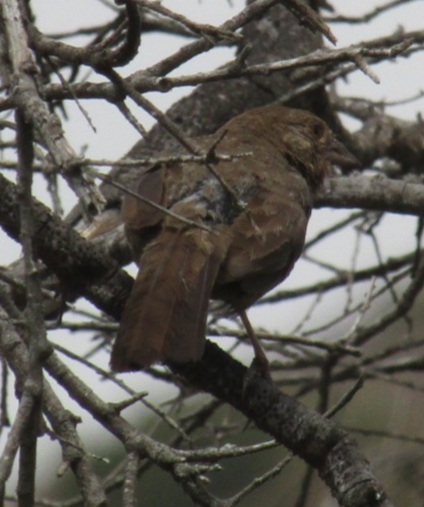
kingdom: Animalia
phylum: Chordata
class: Aves
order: Passeriformes
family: Passerellidae
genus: Melozone
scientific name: Melozone crissalis
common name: California towhee
